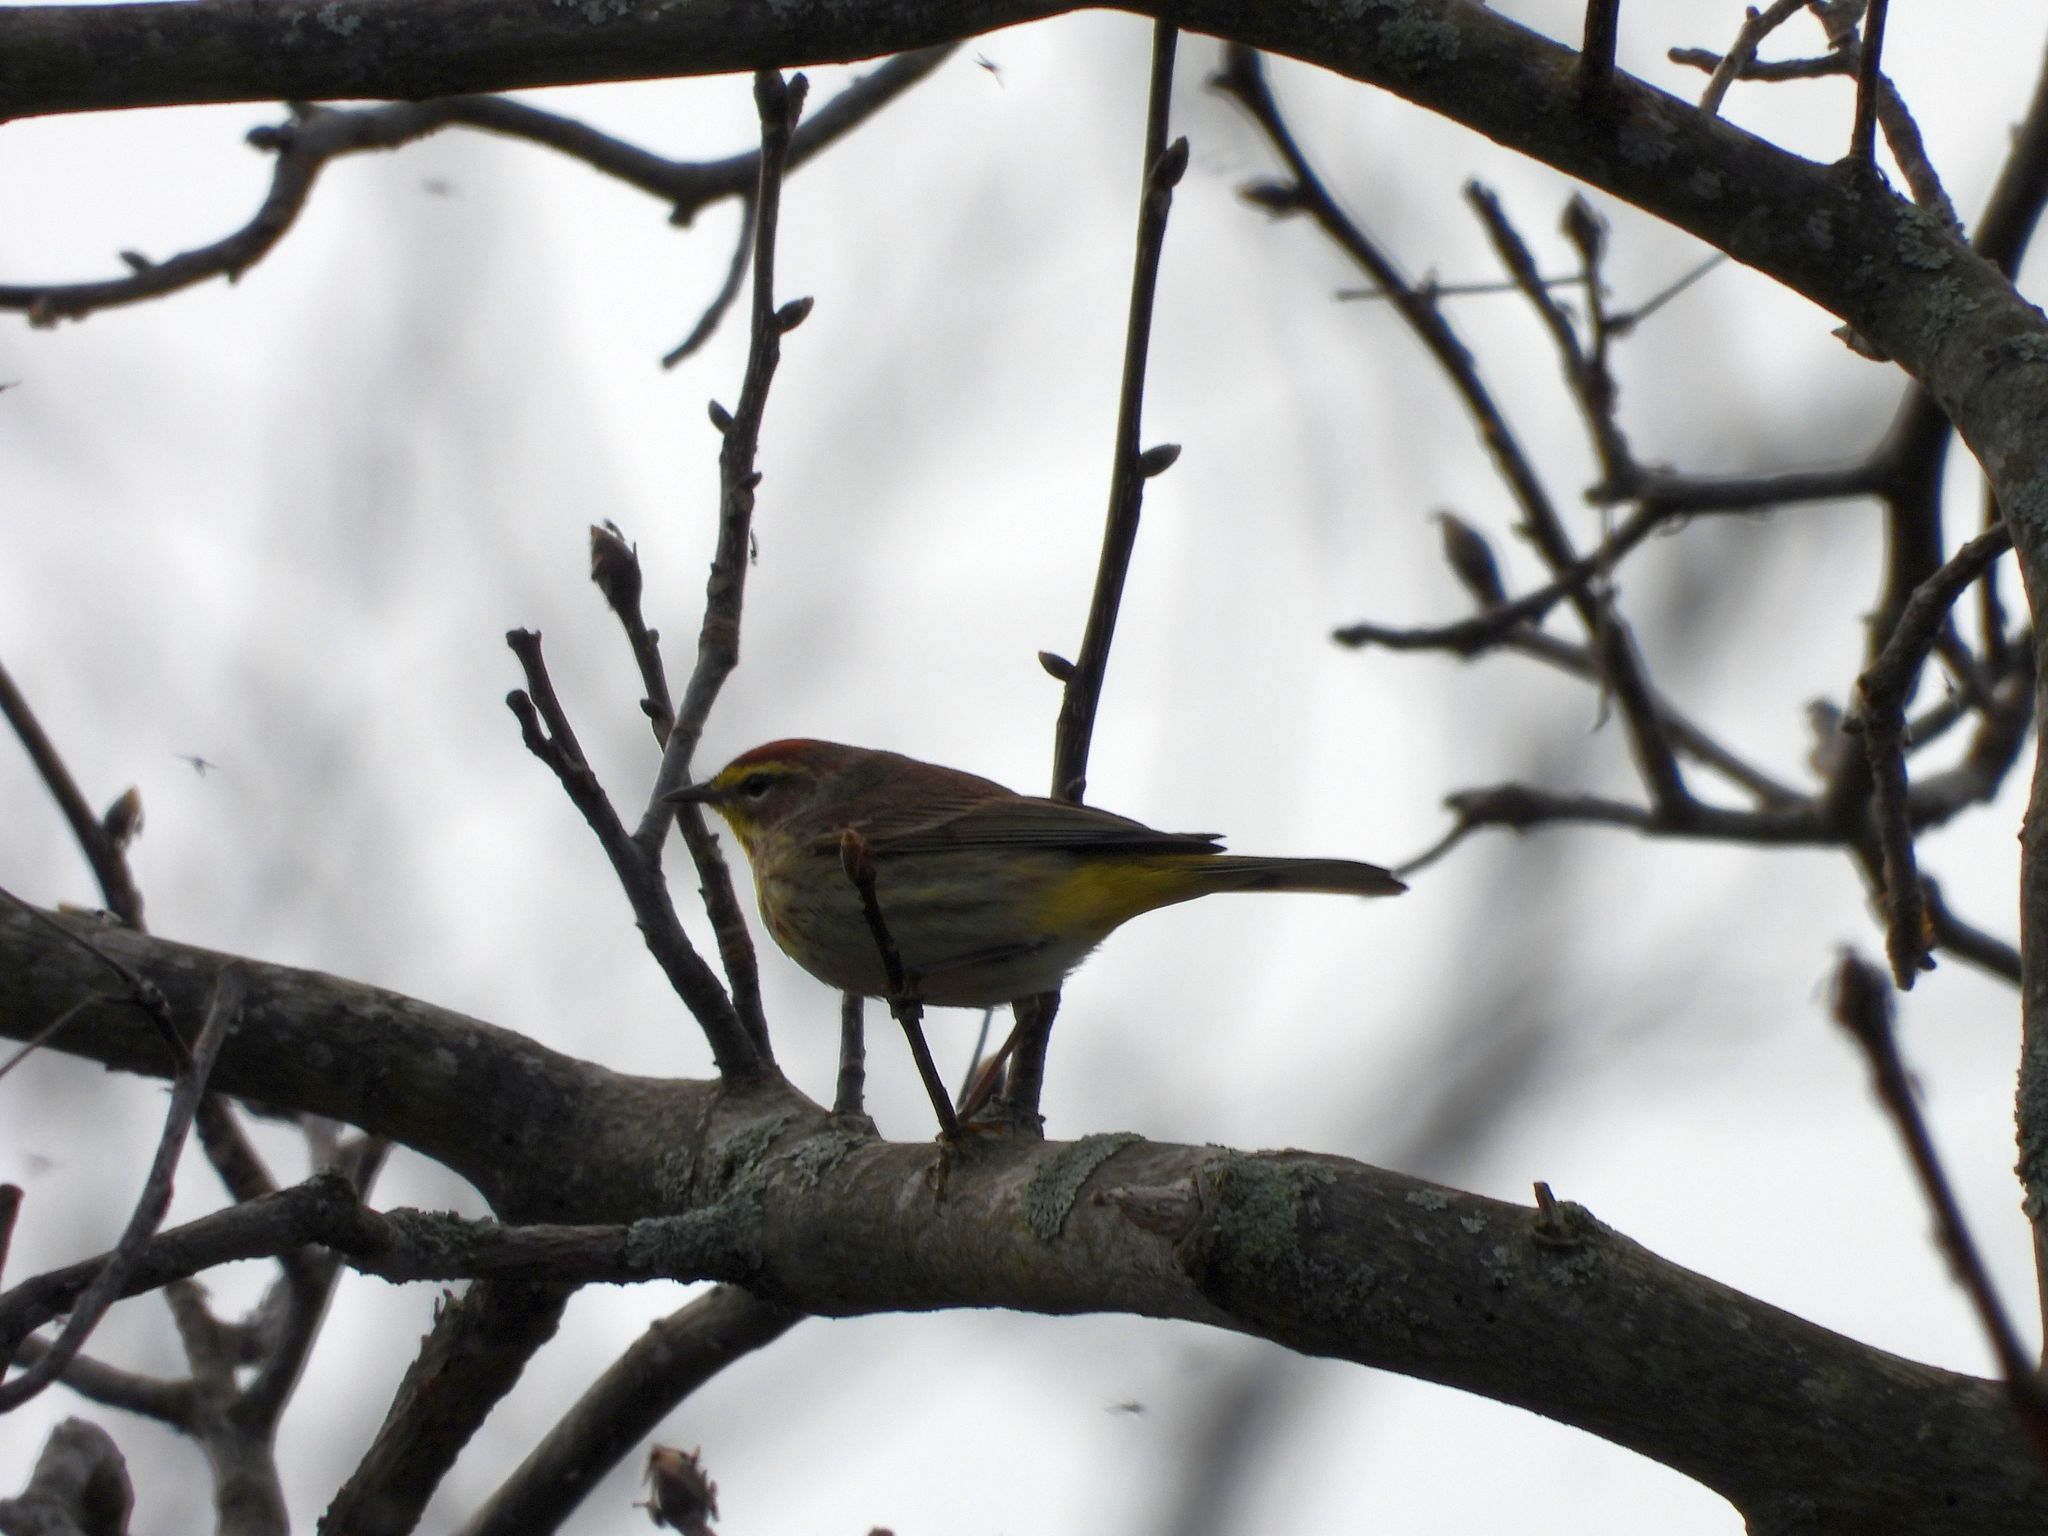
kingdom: Animalia
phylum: Chordata
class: Aves
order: Passeriformes
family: Parulidae
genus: Setophaga
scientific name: Setophaga palmarum
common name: Palm warbler
